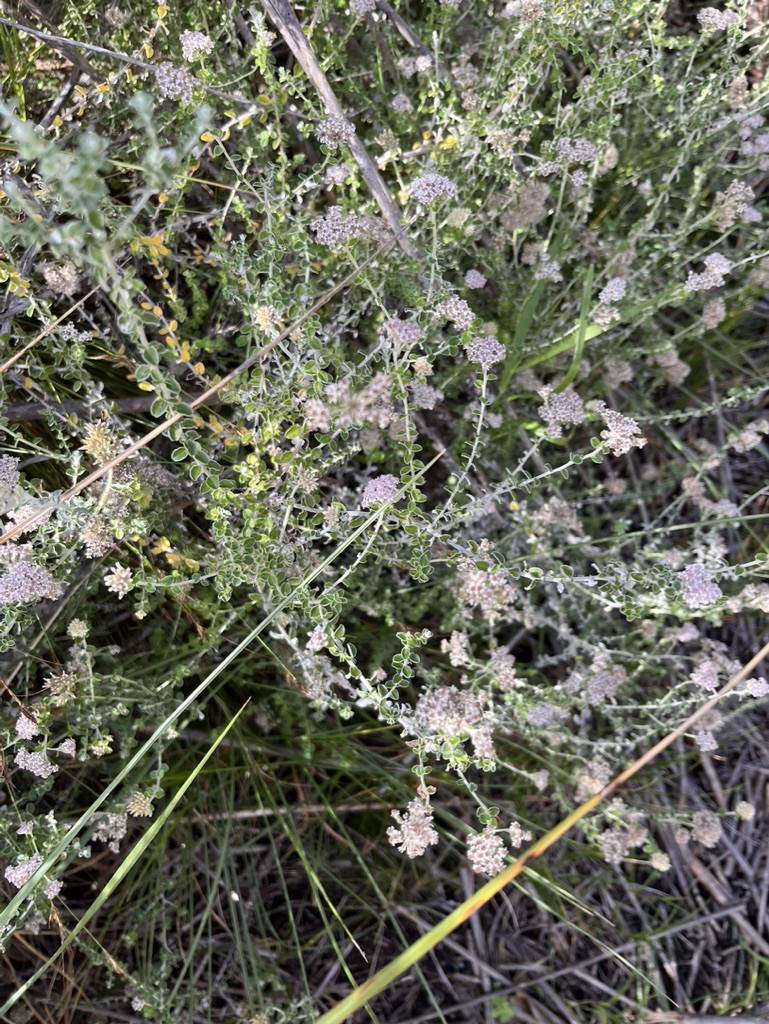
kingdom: Plantae
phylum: Tracheophyta
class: Magnoliopsida
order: Asterales
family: Asteraceae
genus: Plecostachys
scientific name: Plecostachys serpyllifolia
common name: Petite licorice
